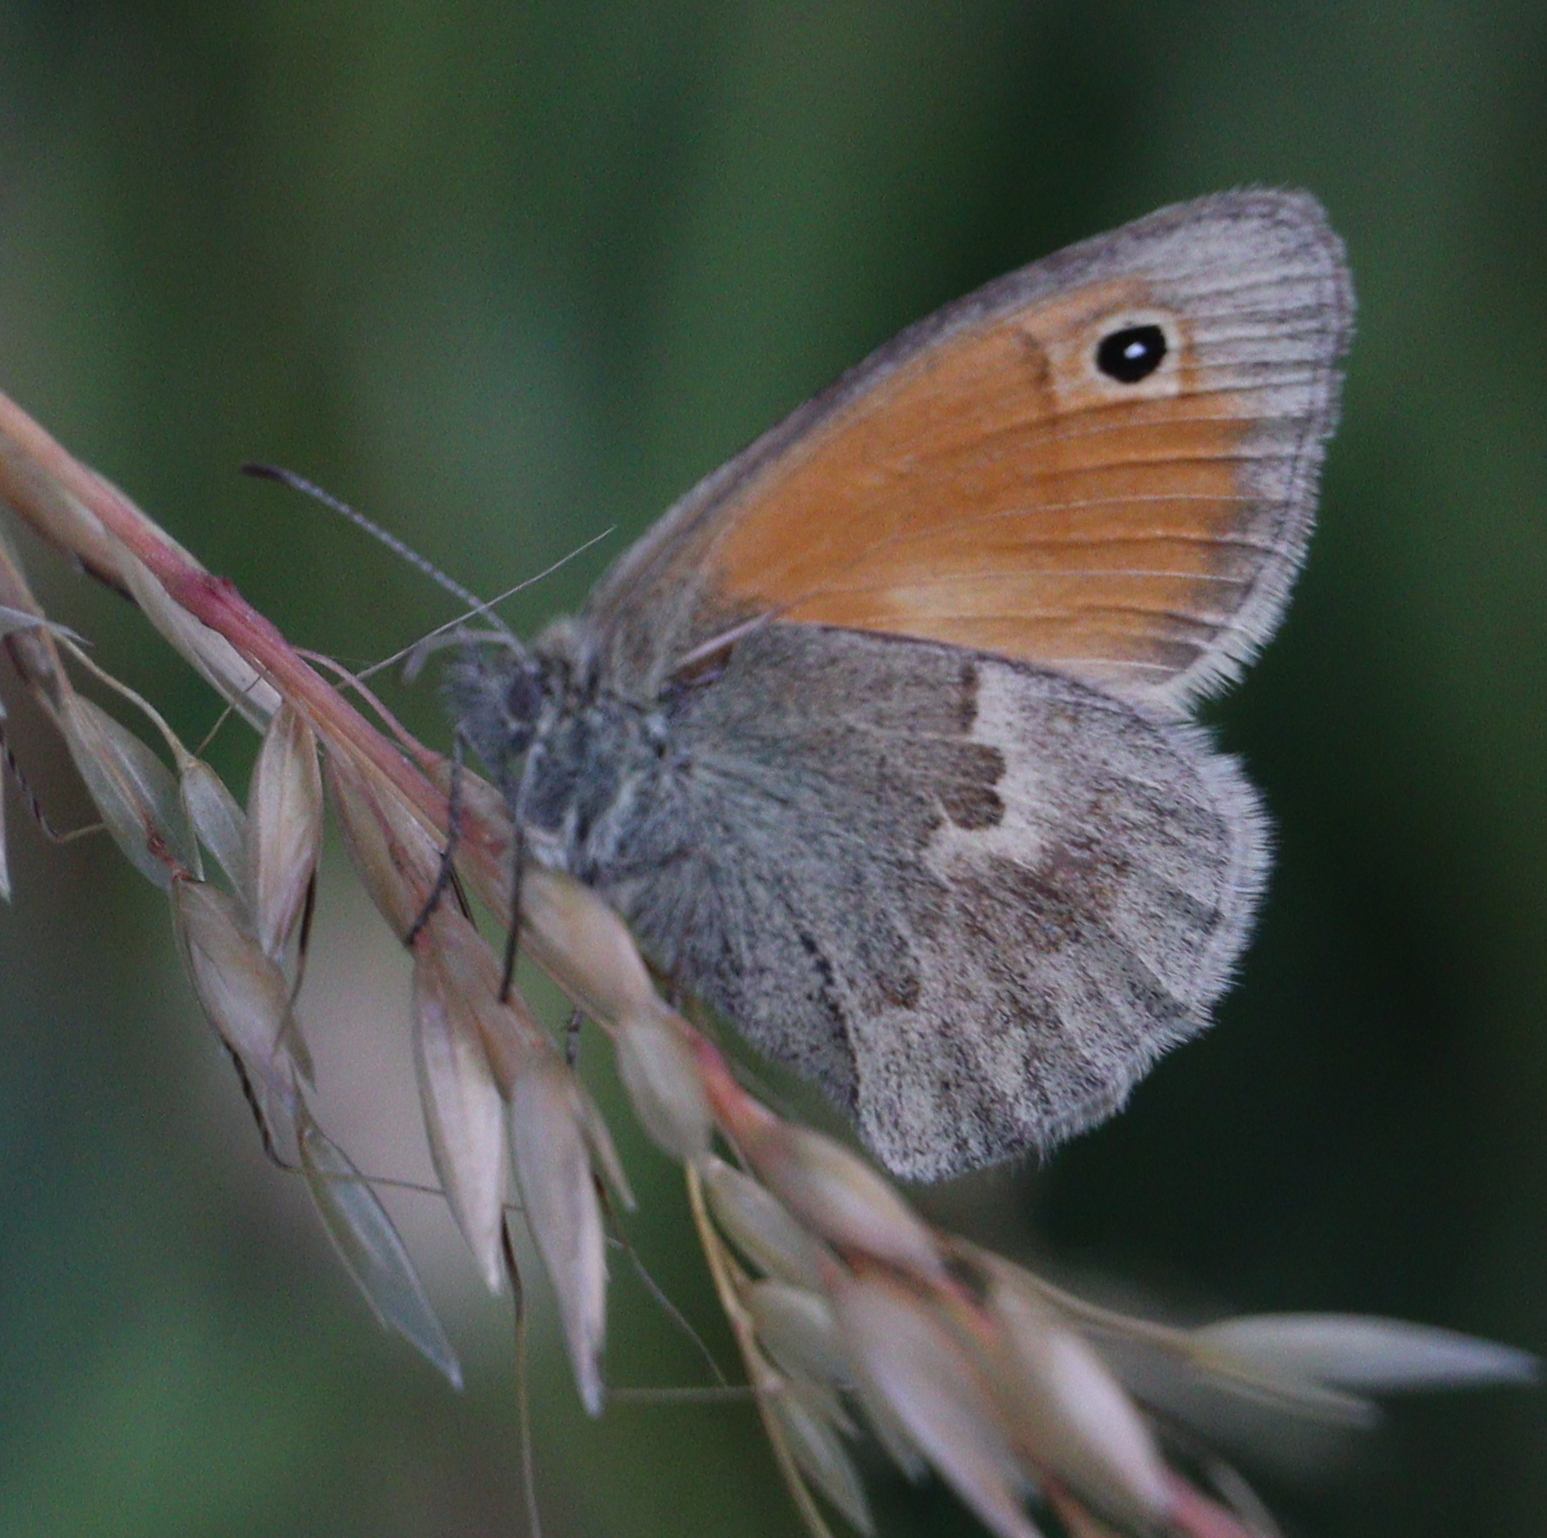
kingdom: Animalia
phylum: Arthropoda
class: Insecta
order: Lepidoptera
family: Nymphalidae
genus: Coenonympha
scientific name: Coenonympha pamphilus
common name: Small heath
